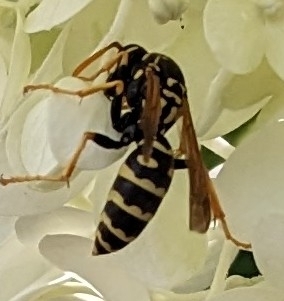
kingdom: Animalia
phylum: Arthropoda
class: Insecta
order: Hymenoptera
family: Eumenidae
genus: Polistes
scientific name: Polistes dominula
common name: Paper wasp
